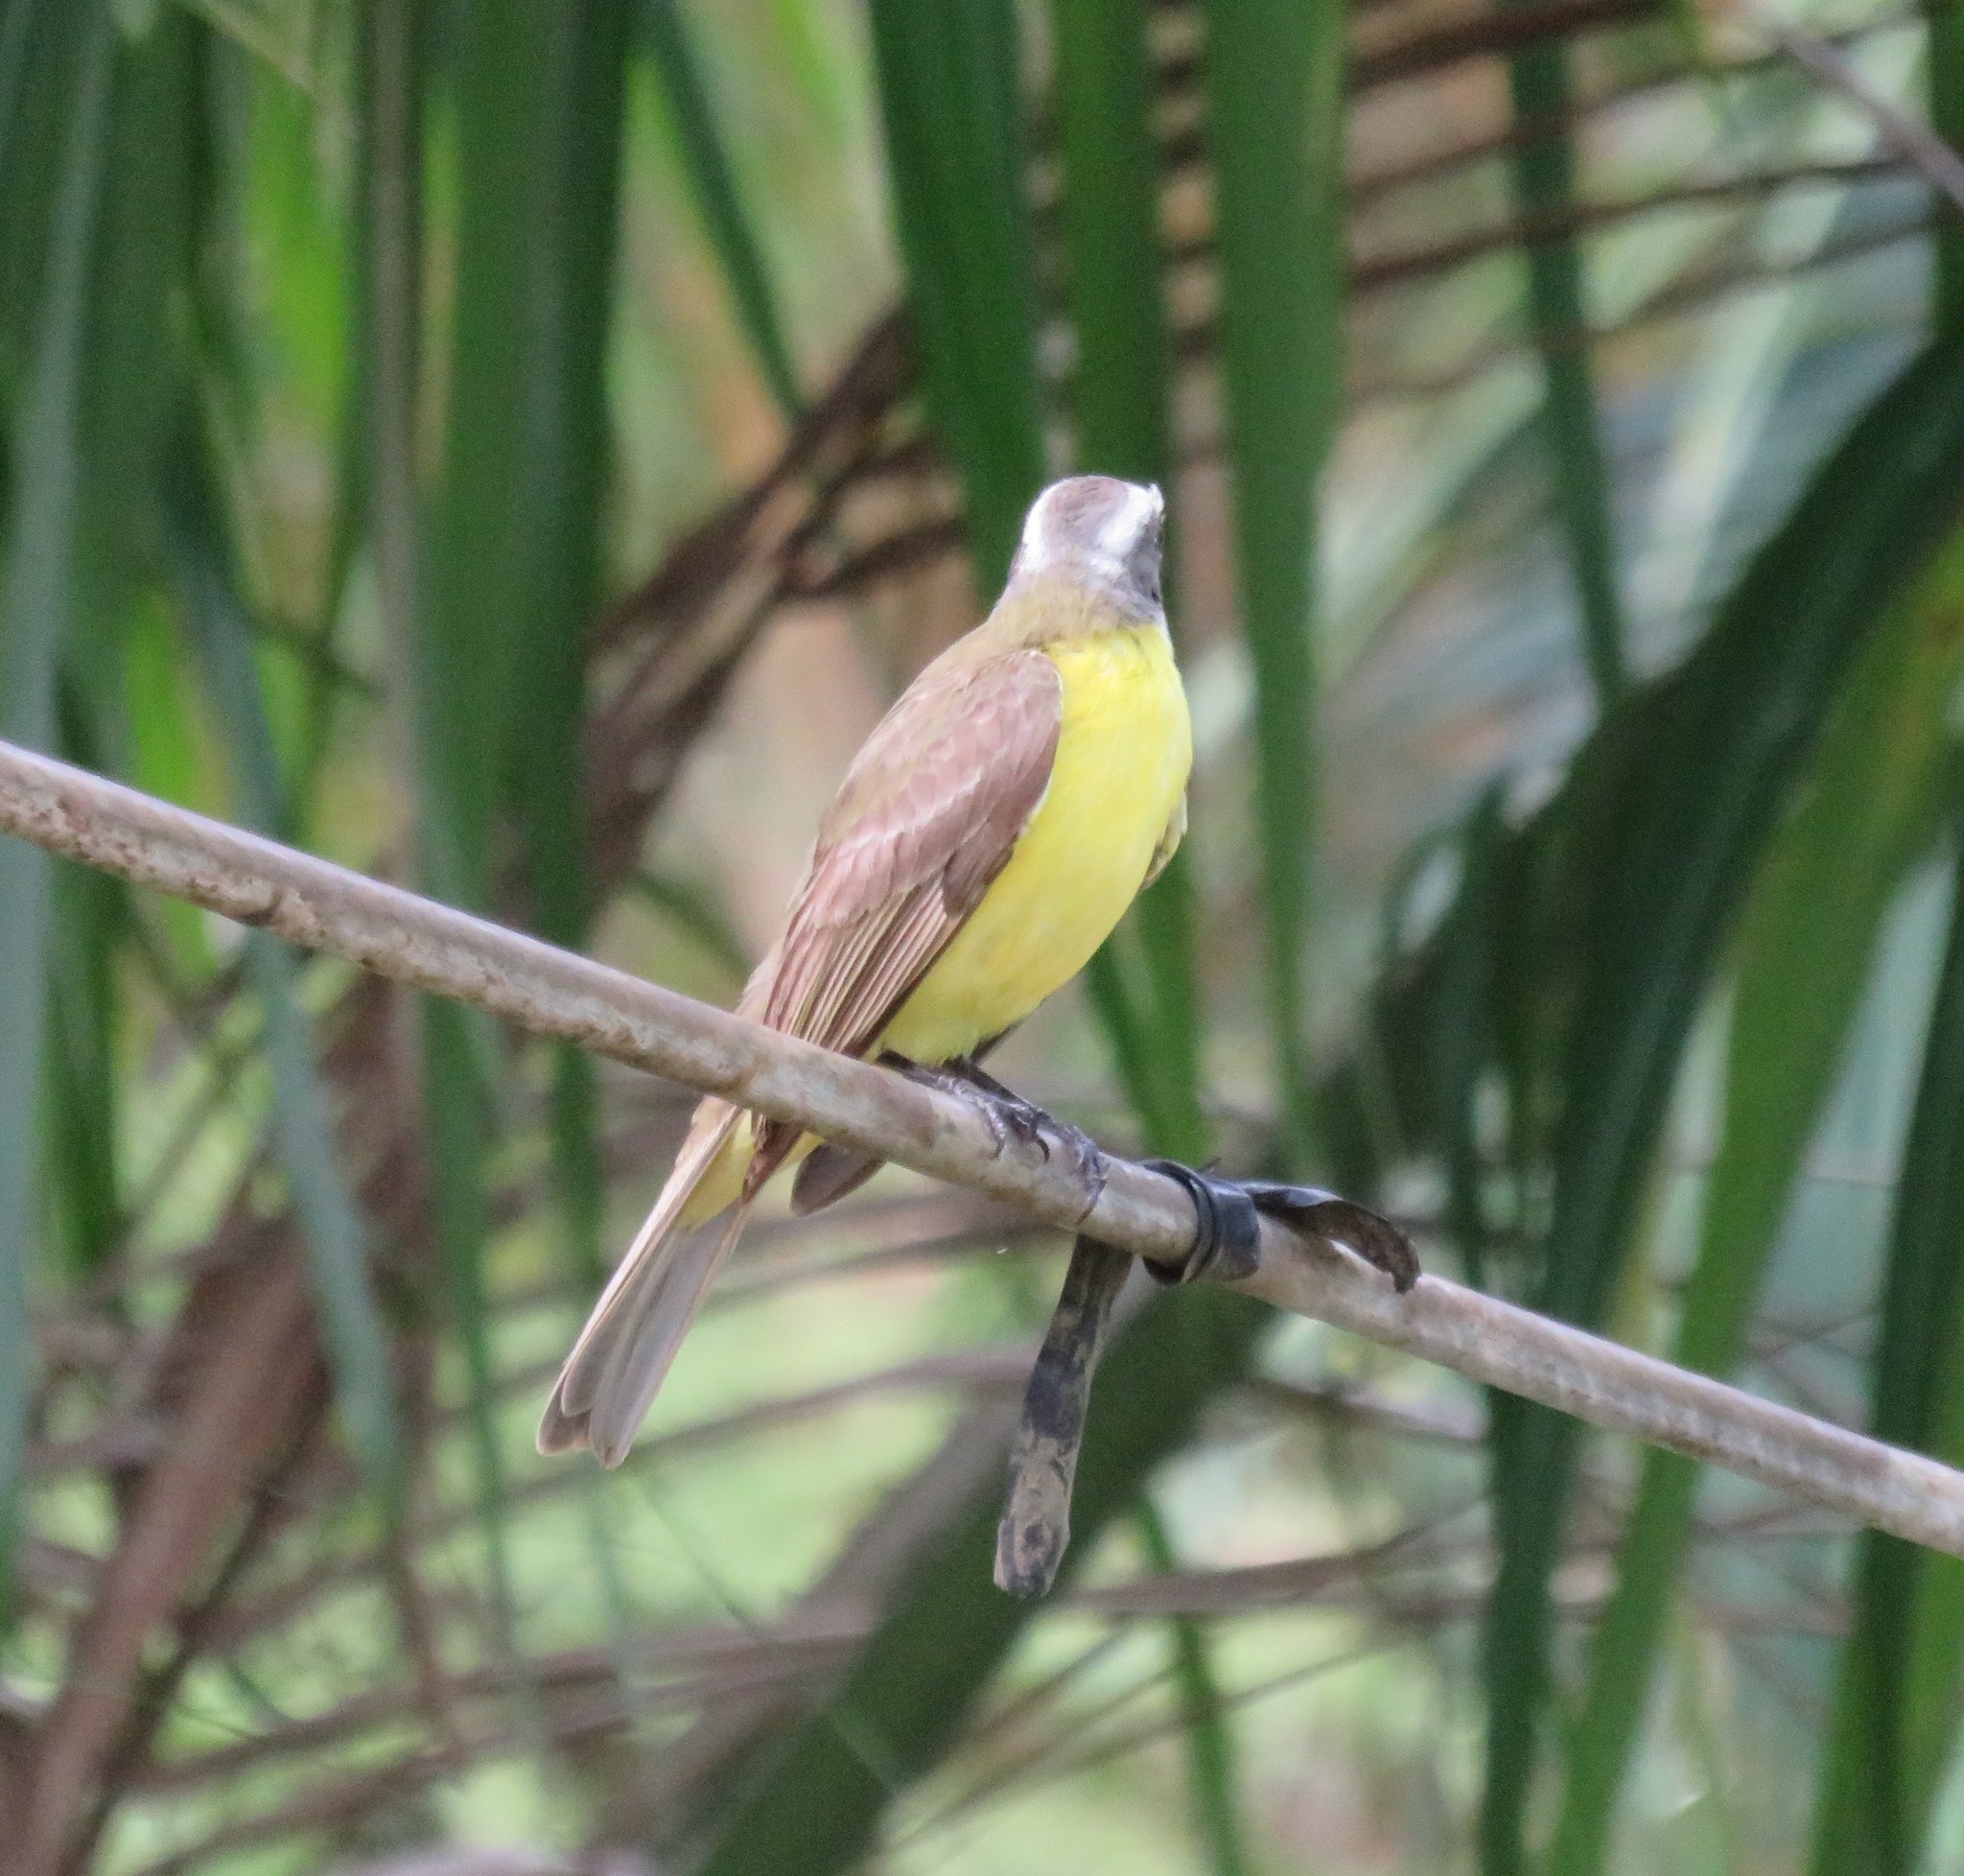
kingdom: Animalia
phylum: Chordata
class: Aves
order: Passeriformes
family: Tyrannidae
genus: Myiozetetes
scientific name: Myiozetetes similis
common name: Social flycatcher
